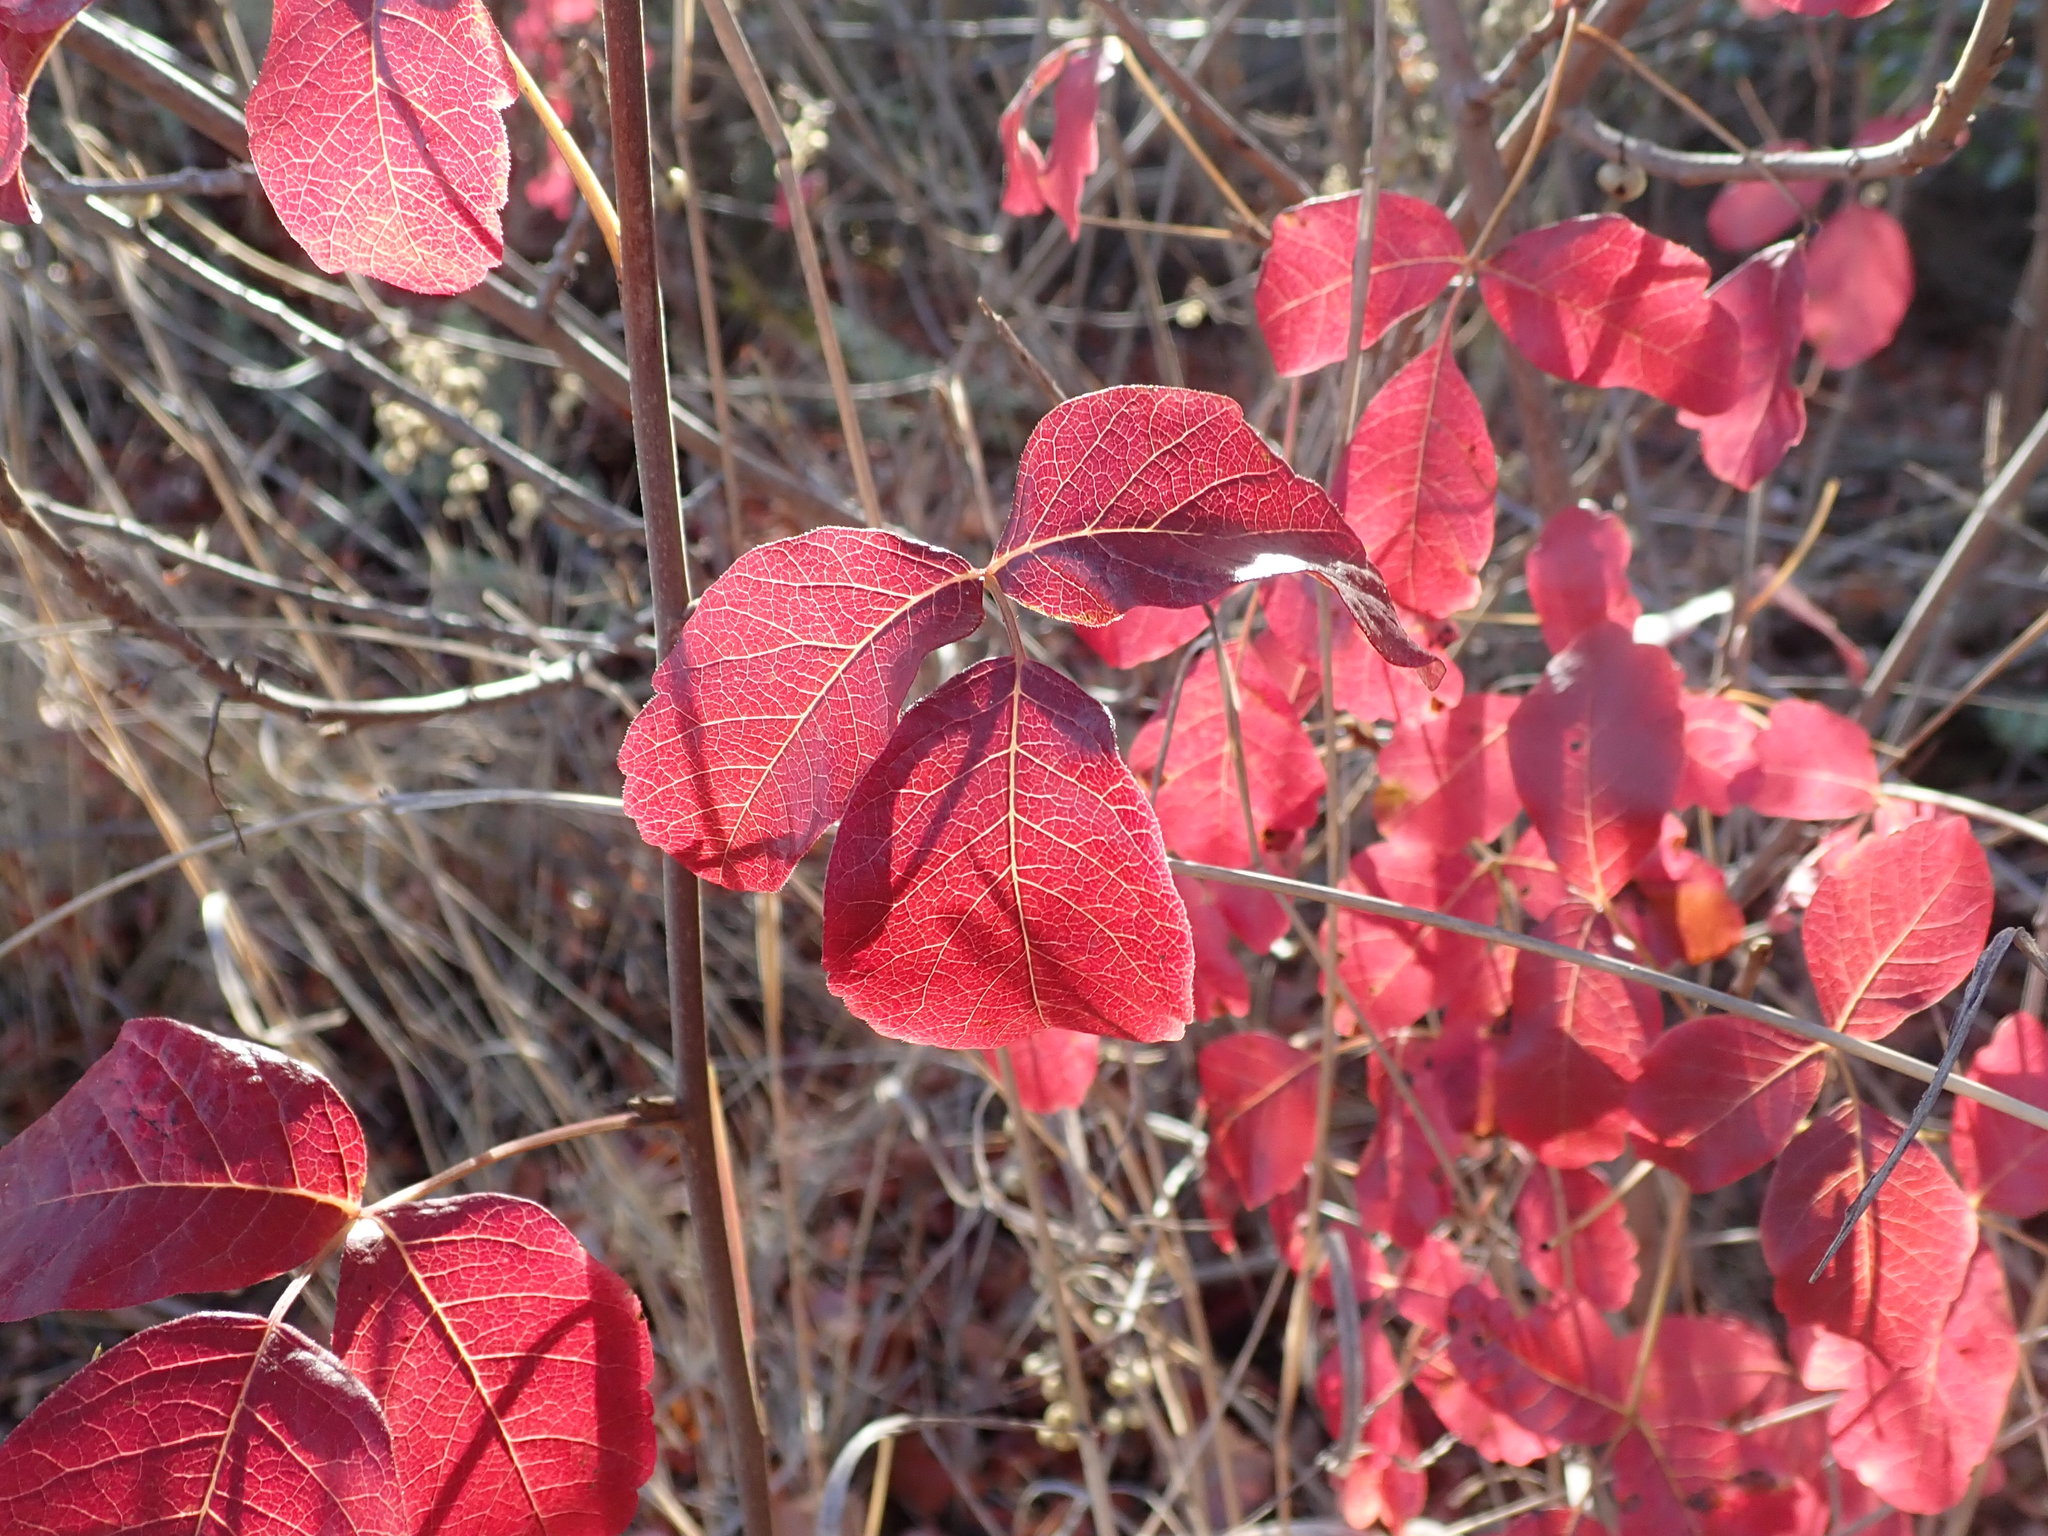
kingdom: Plantae
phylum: Tracheophyta
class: Magnoliopsida
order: Sapindales
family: Anacardiaceae
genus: Toxicodendron
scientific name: Toxicodendron diversilobum
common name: Pacific poison-oak
